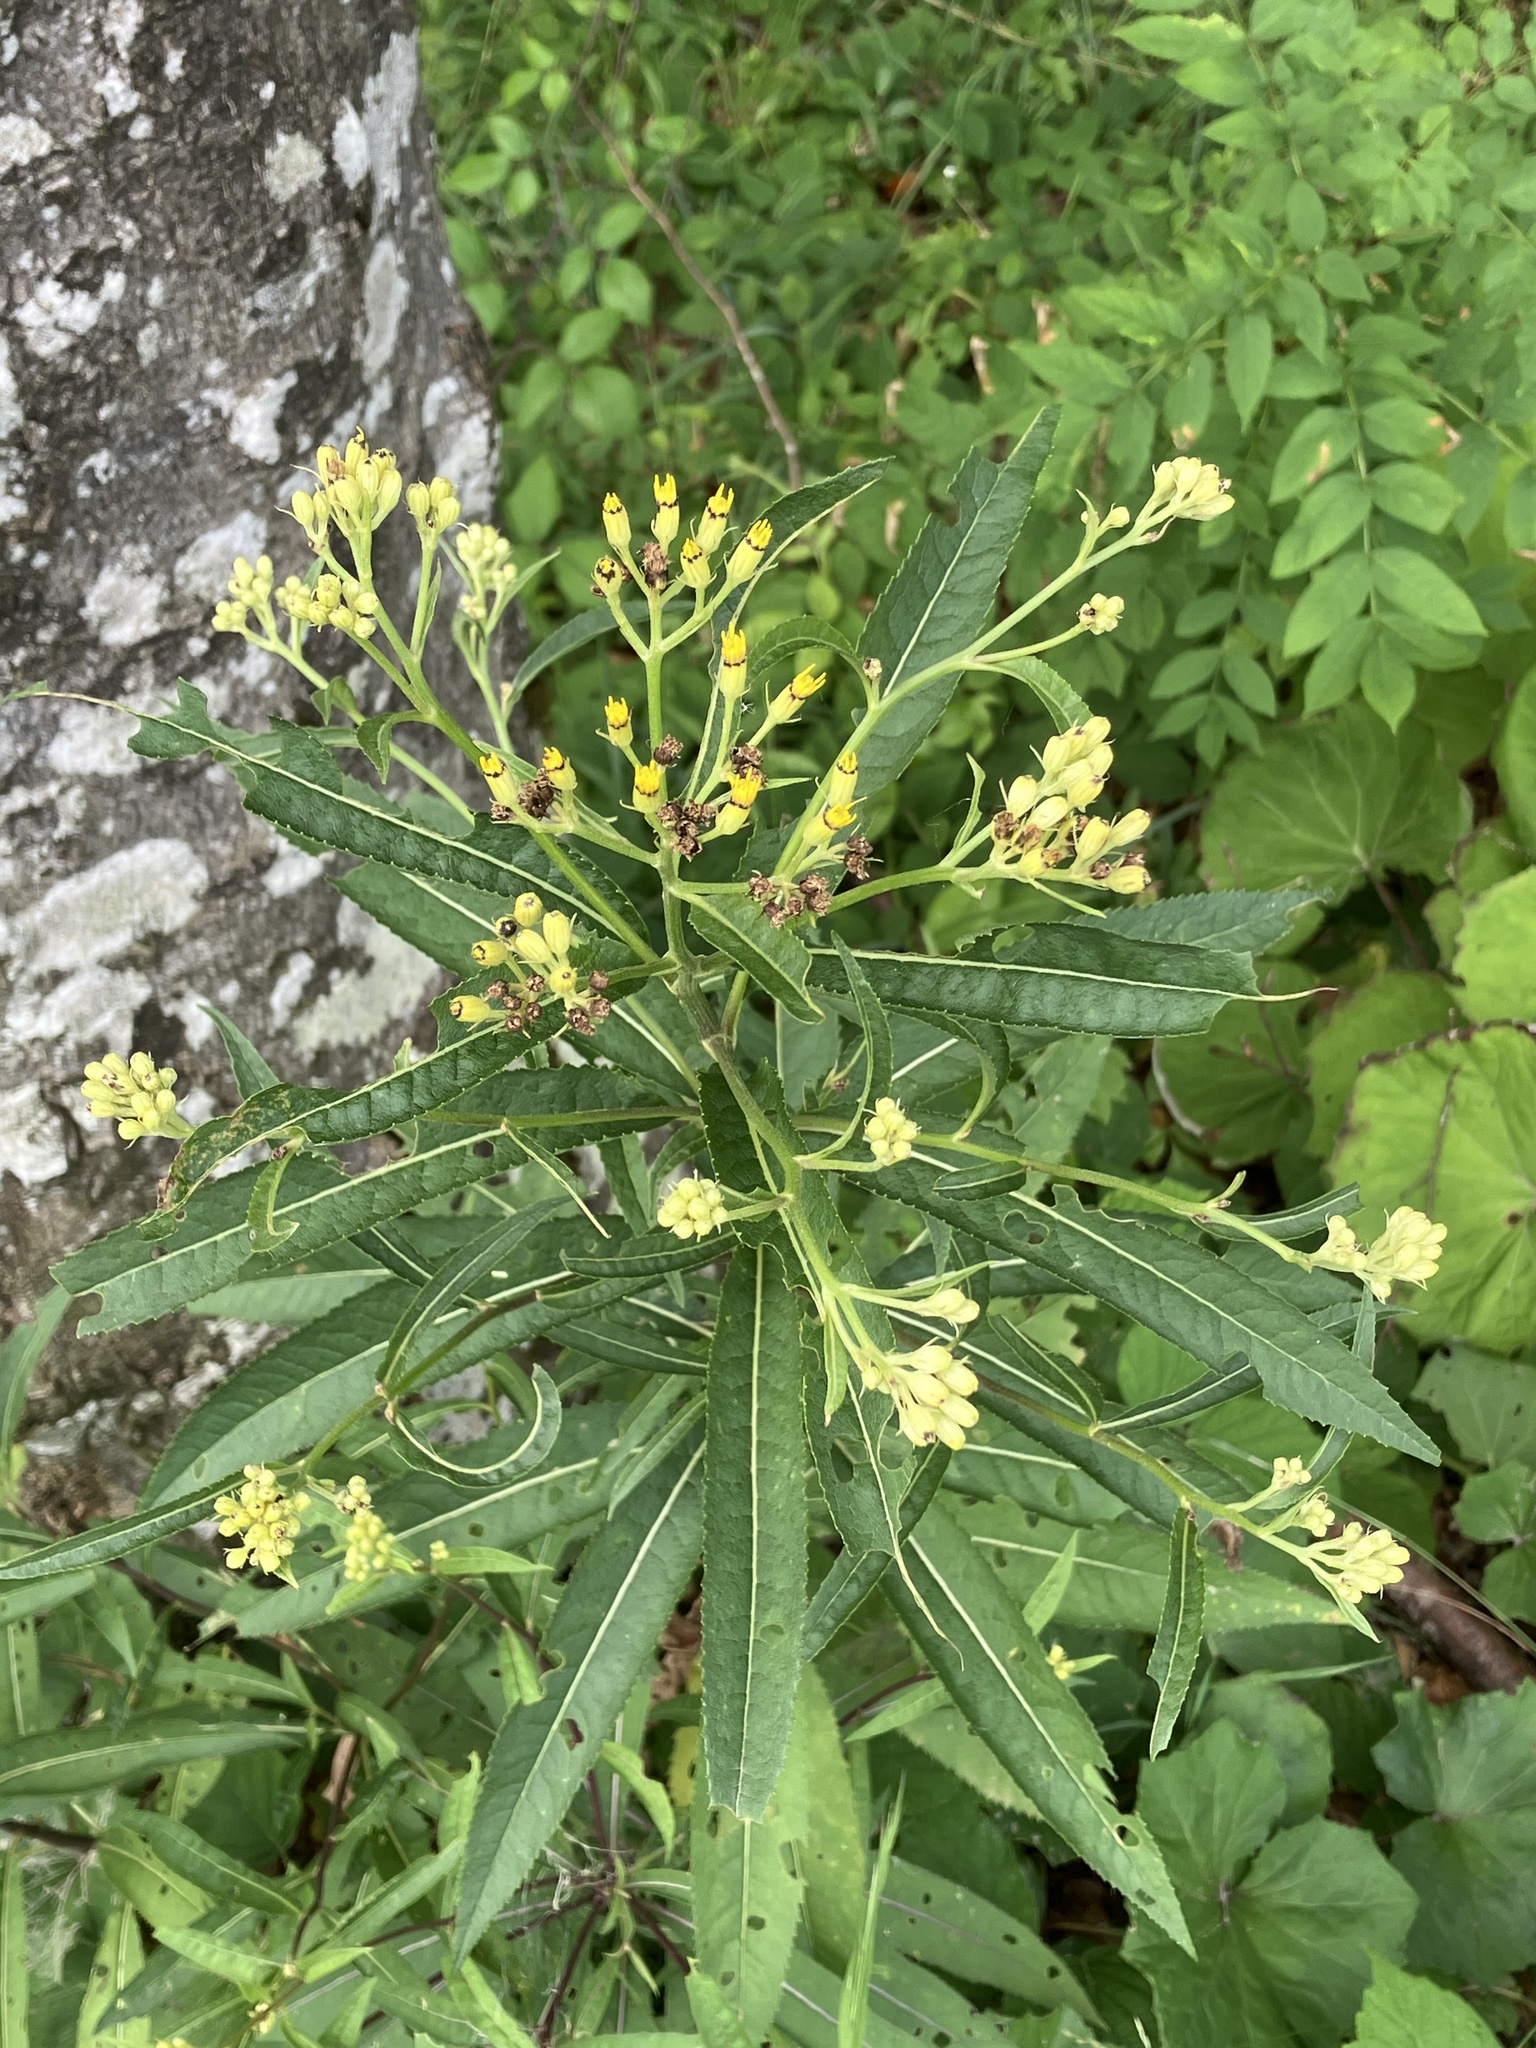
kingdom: Plantae
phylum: Tracheophyta
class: Magnoliopsida
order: Asterales
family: Asteraceae
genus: Senecio
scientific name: Senecio ovatus
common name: Wood ragwort
